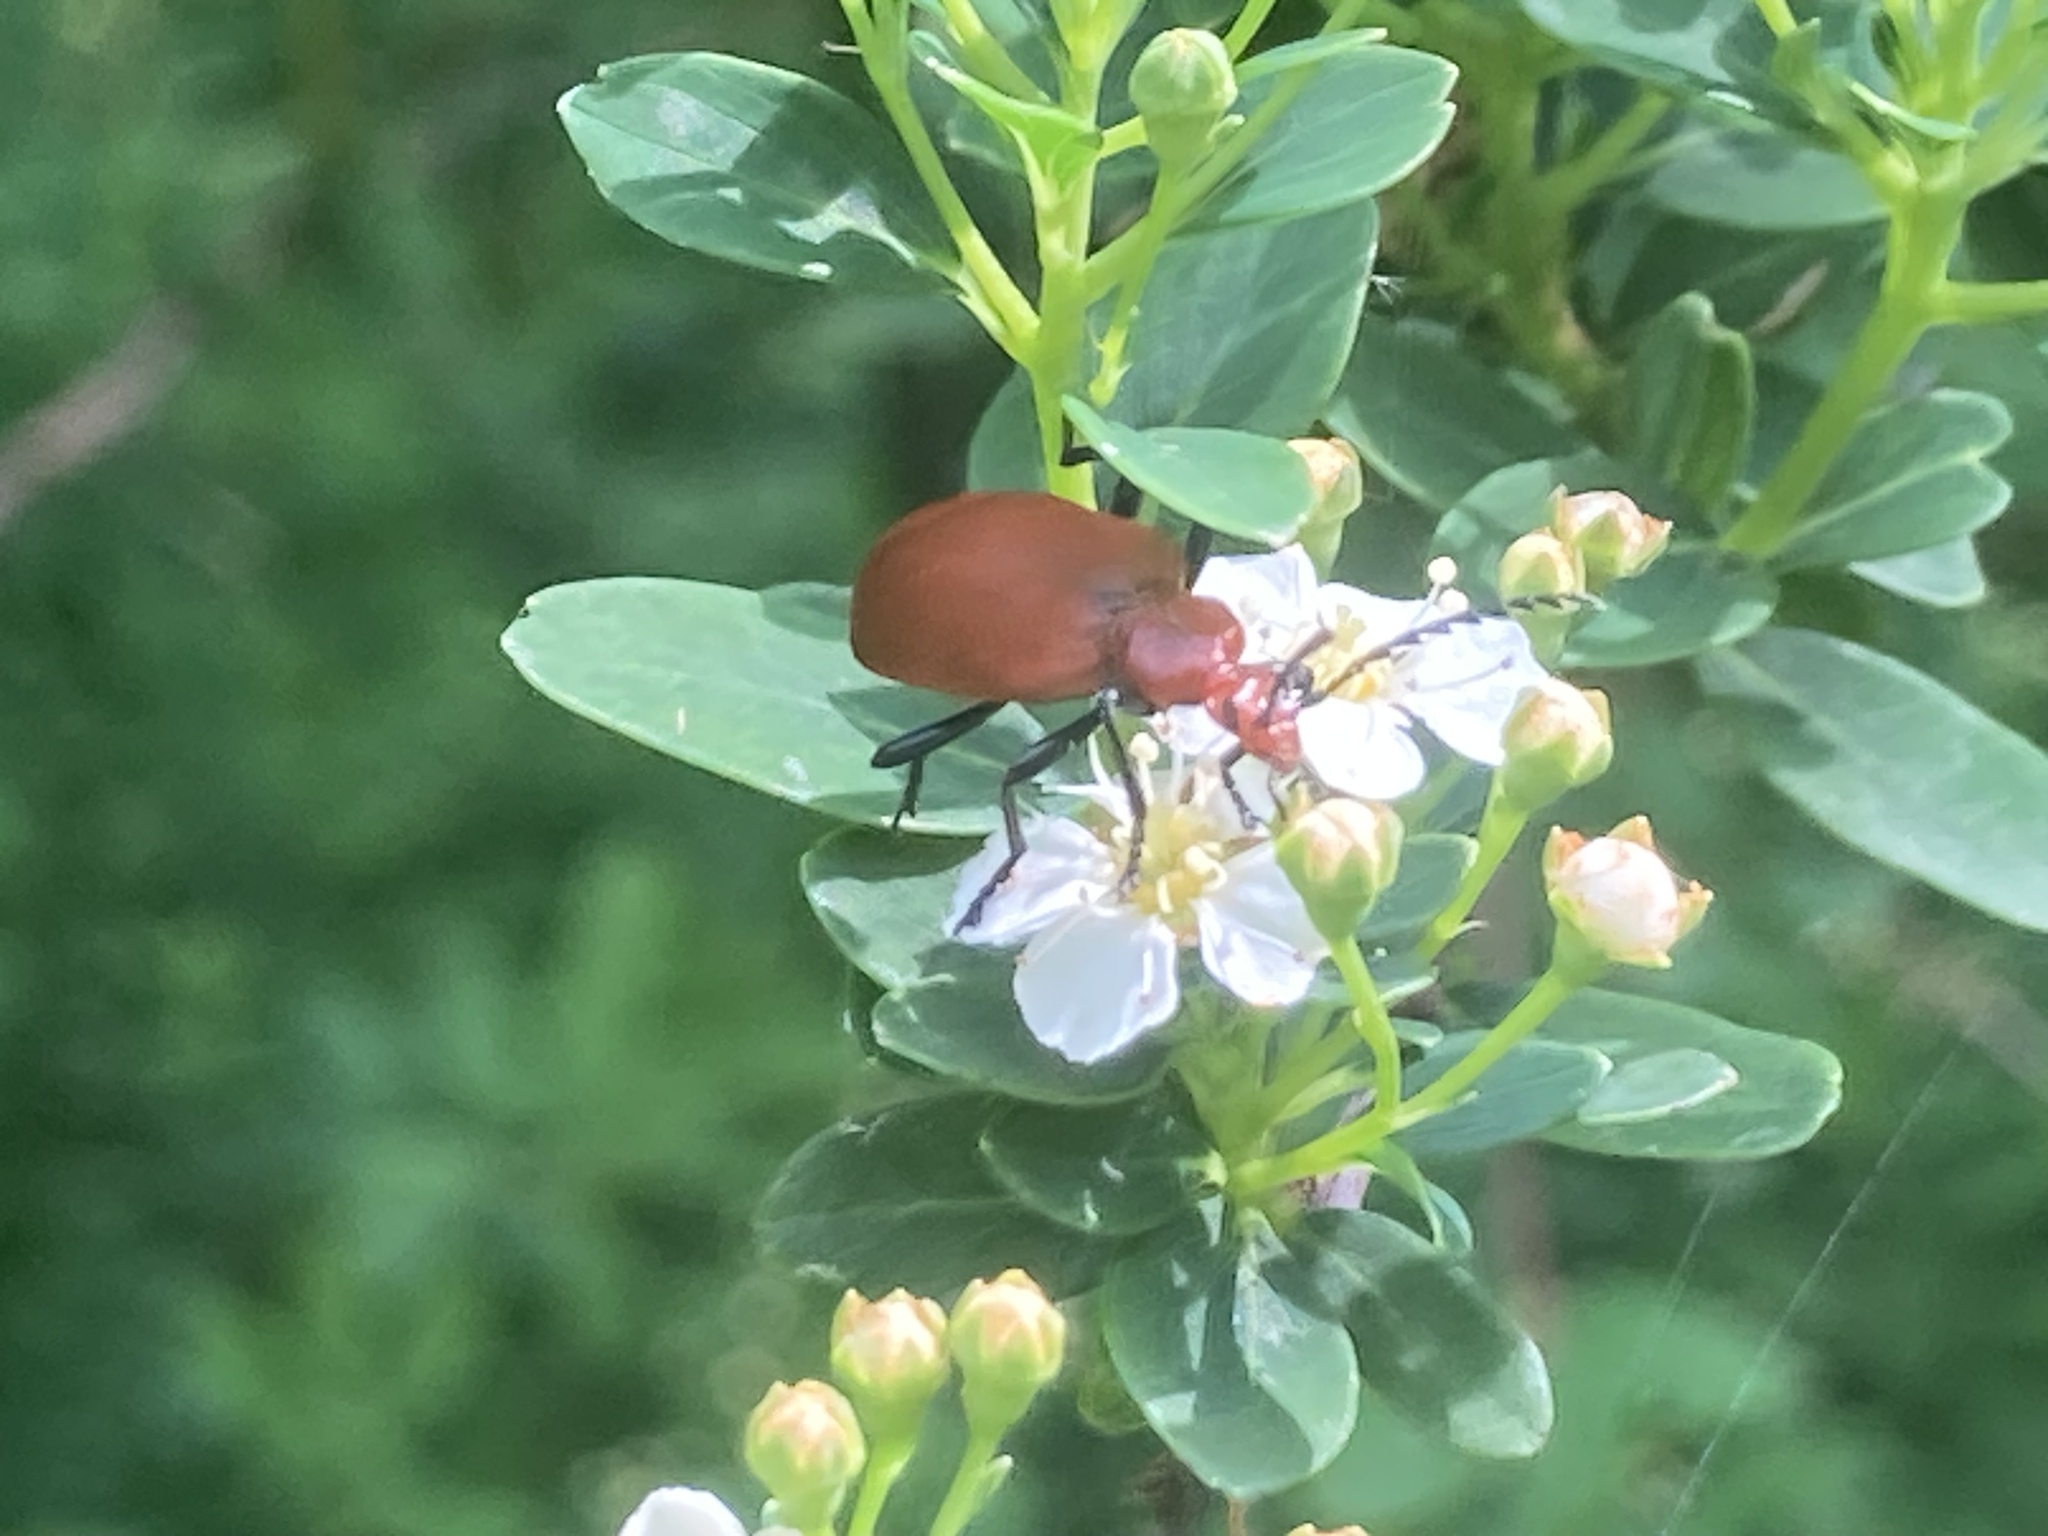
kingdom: Animalia
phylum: Arthropoda
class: Insecta
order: Coleoptera
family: Pyrochroidae
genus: Pyrochroa
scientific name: Pyrochroa serraticornis
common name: Red-headed cardinal beetle
